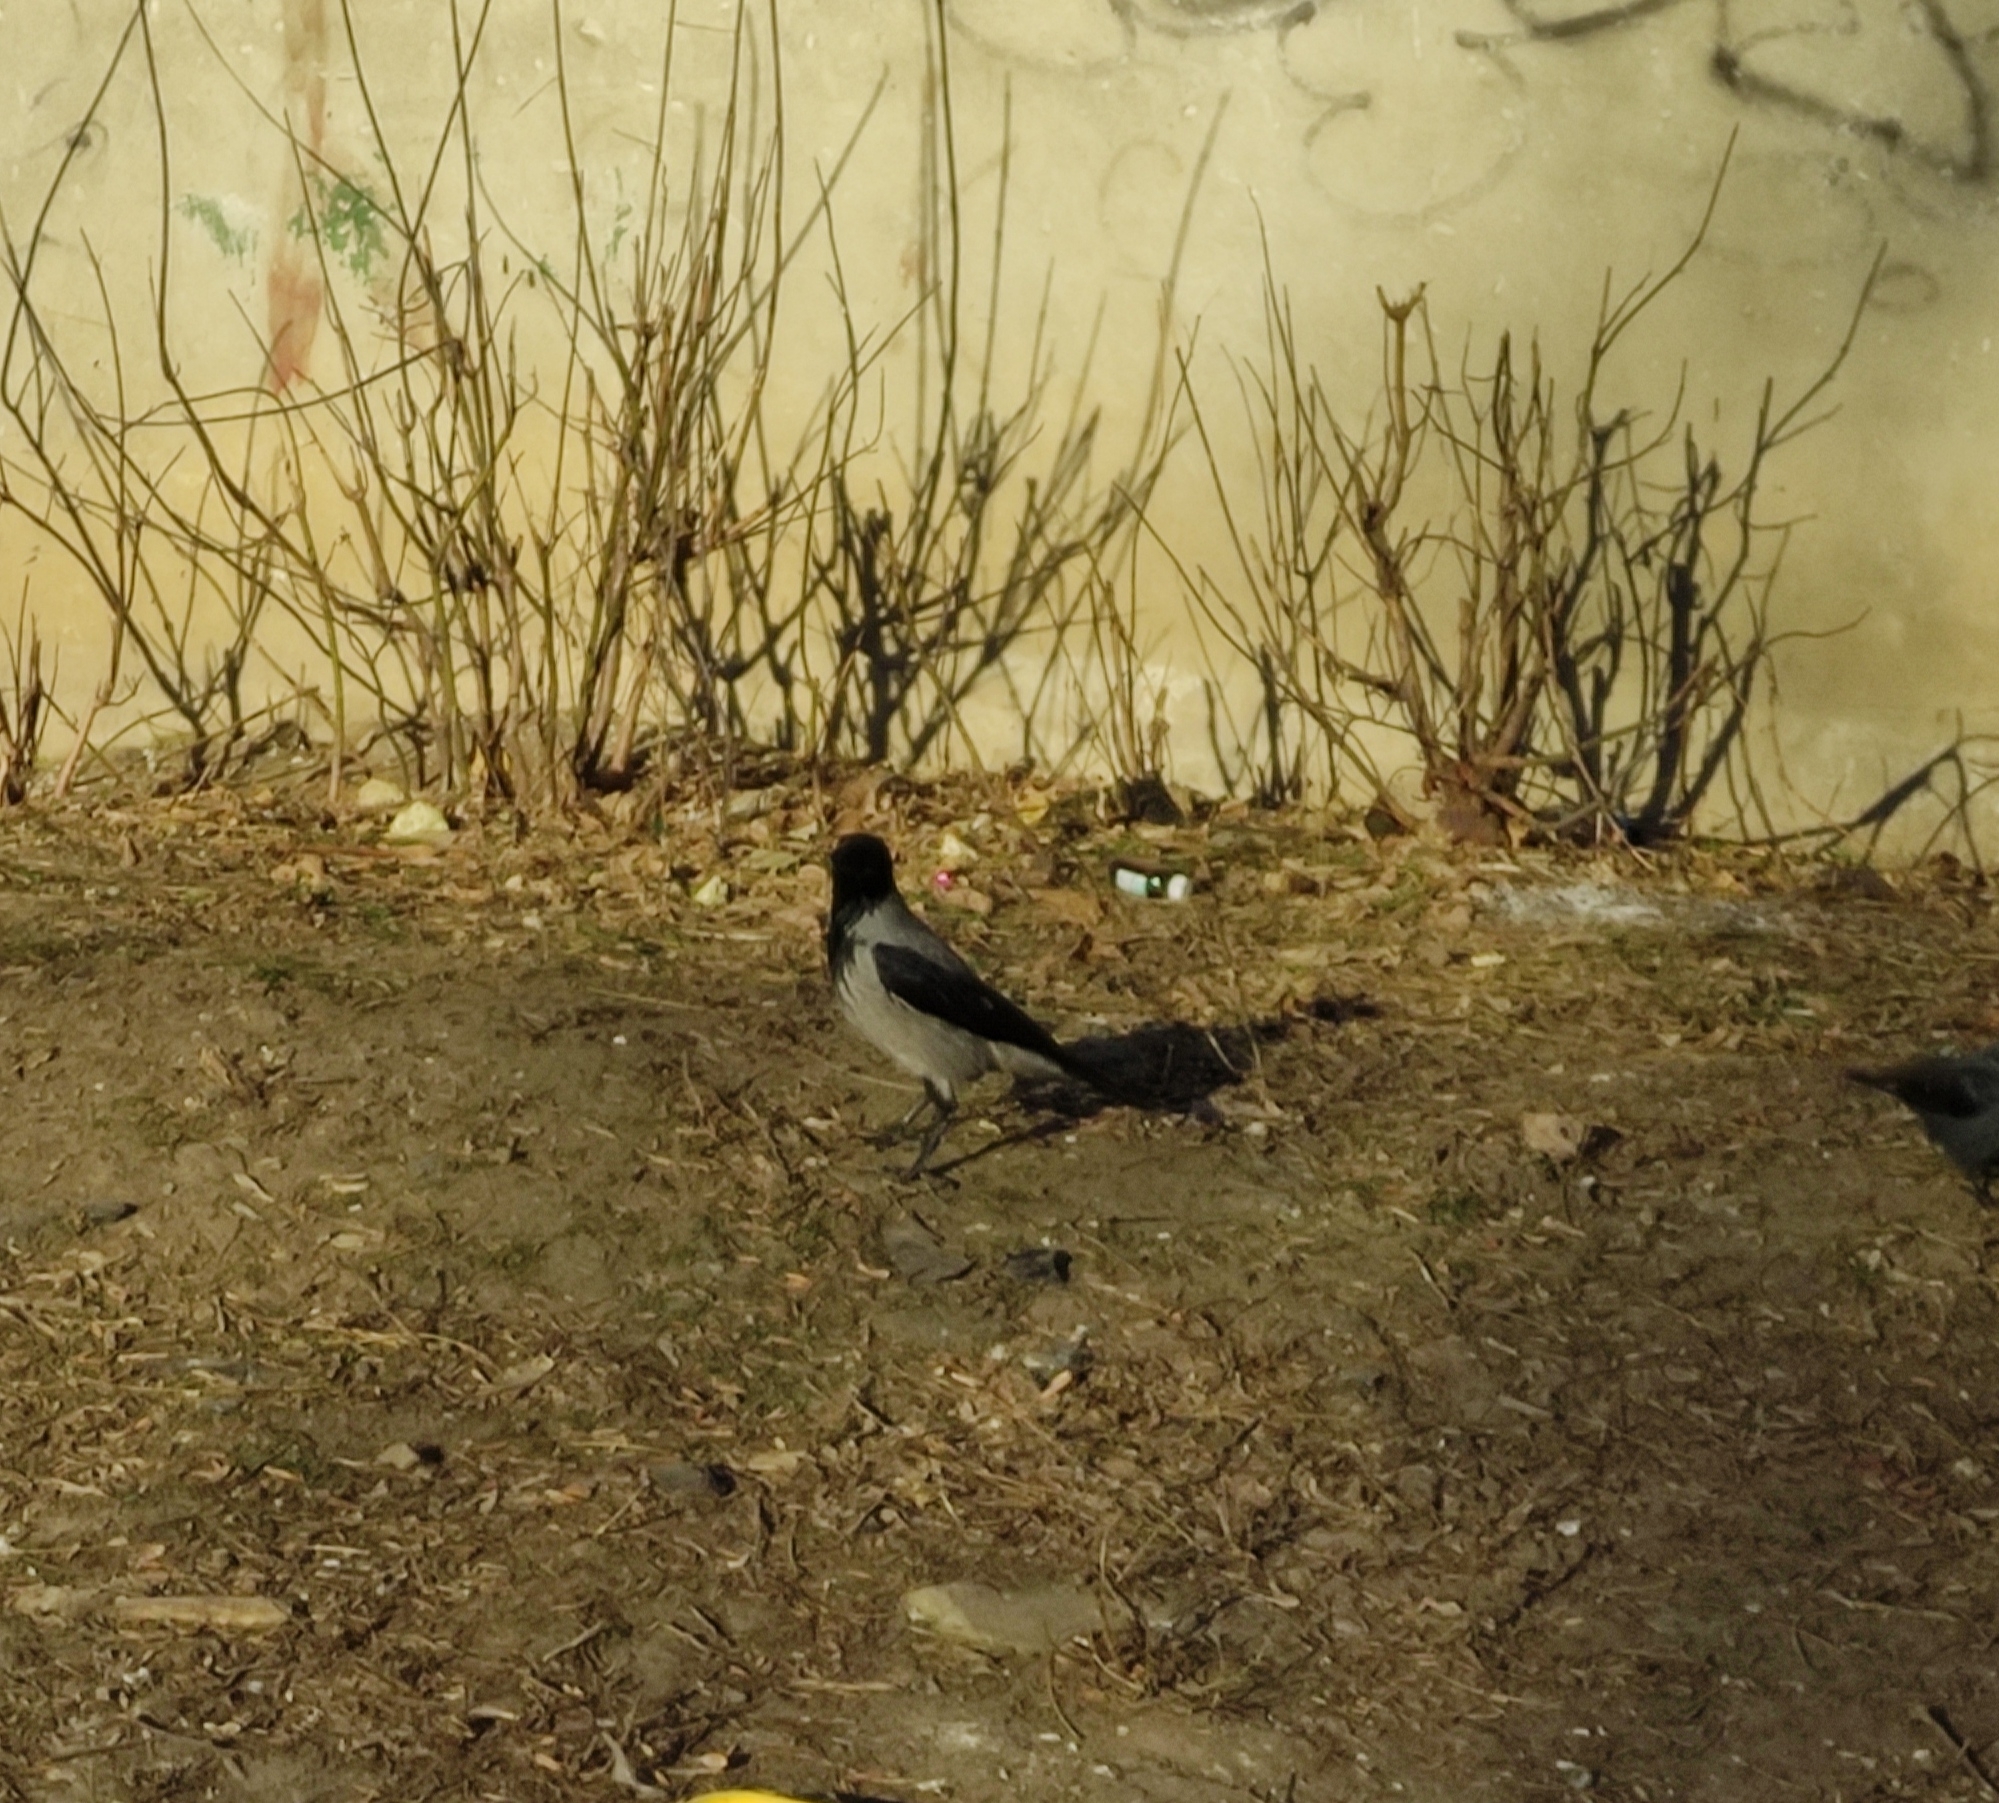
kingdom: Animalia
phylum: Chordata
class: Aves
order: Passeriformes
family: Corvidae
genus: Corvus
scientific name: Corvus cornix
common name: Hooded crow
